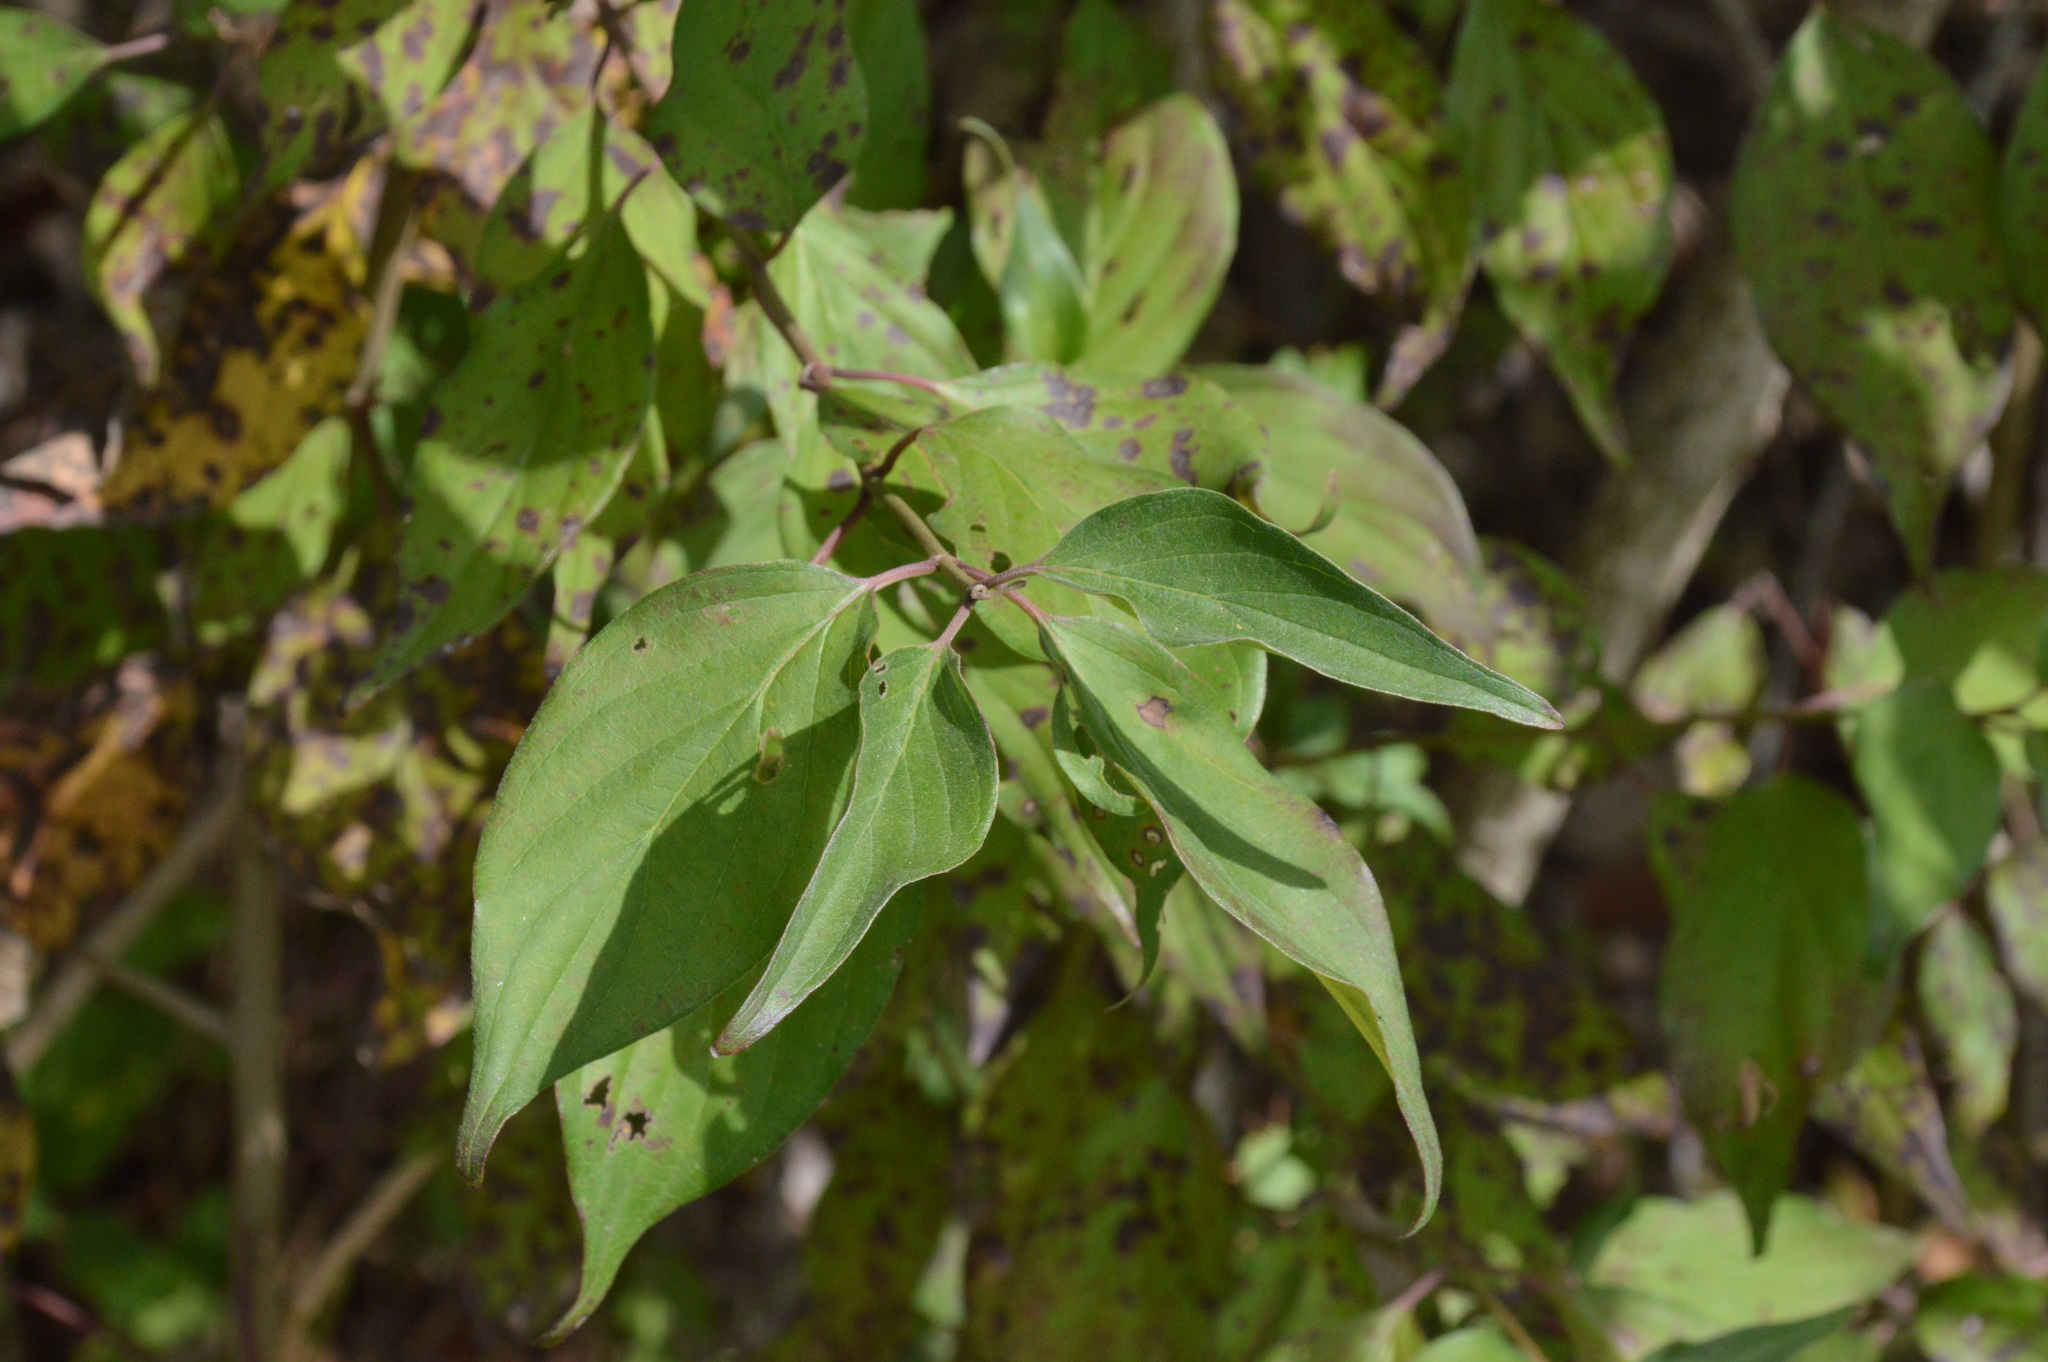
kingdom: Plantae
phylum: Tracheophyta
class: Magnoliopsida
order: Cornales
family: Cornaceae
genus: Cornus
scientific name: Cornus drummondii
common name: Rough-leaf dogwood
